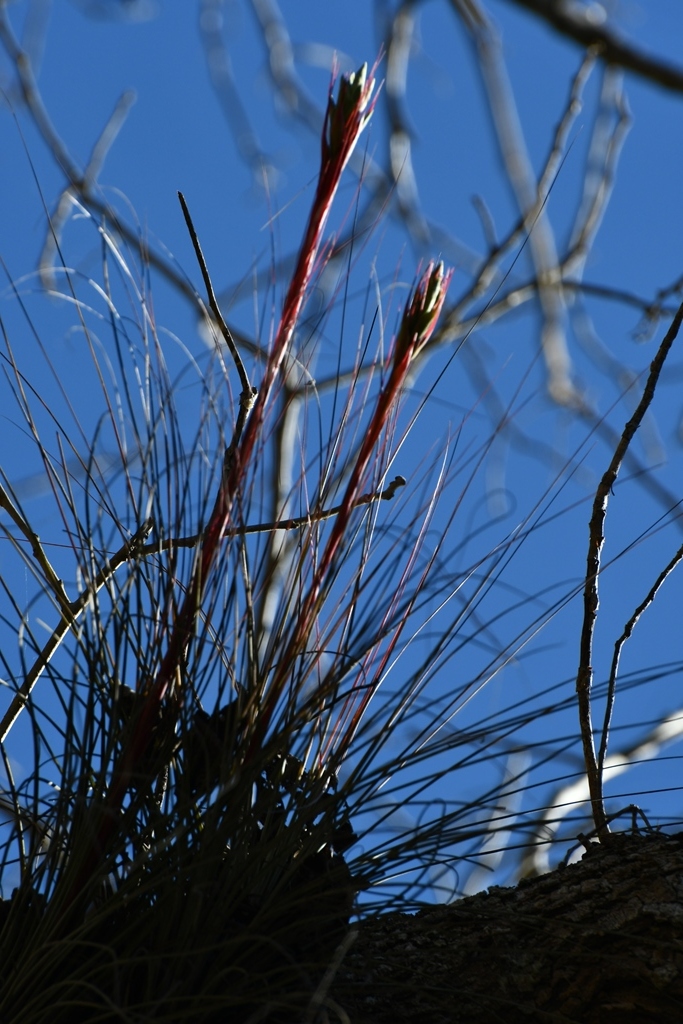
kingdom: Plantae
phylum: Tracheophyta
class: Liliopsida
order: Poales
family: Bromeliaceae
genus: Tillandsia
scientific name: Tillandsia juncea
